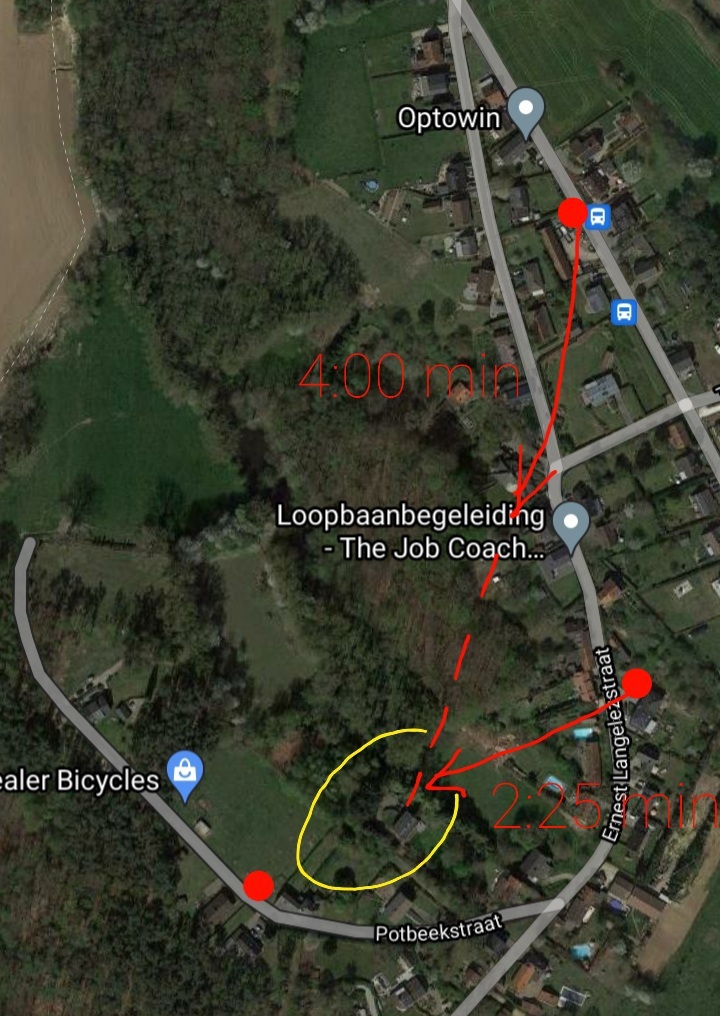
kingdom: Animalia
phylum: Arthropoda
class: Insecta
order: Hymenoptera
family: Vespidae
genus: Vespa
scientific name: Vespa velutina
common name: Asian hornet
